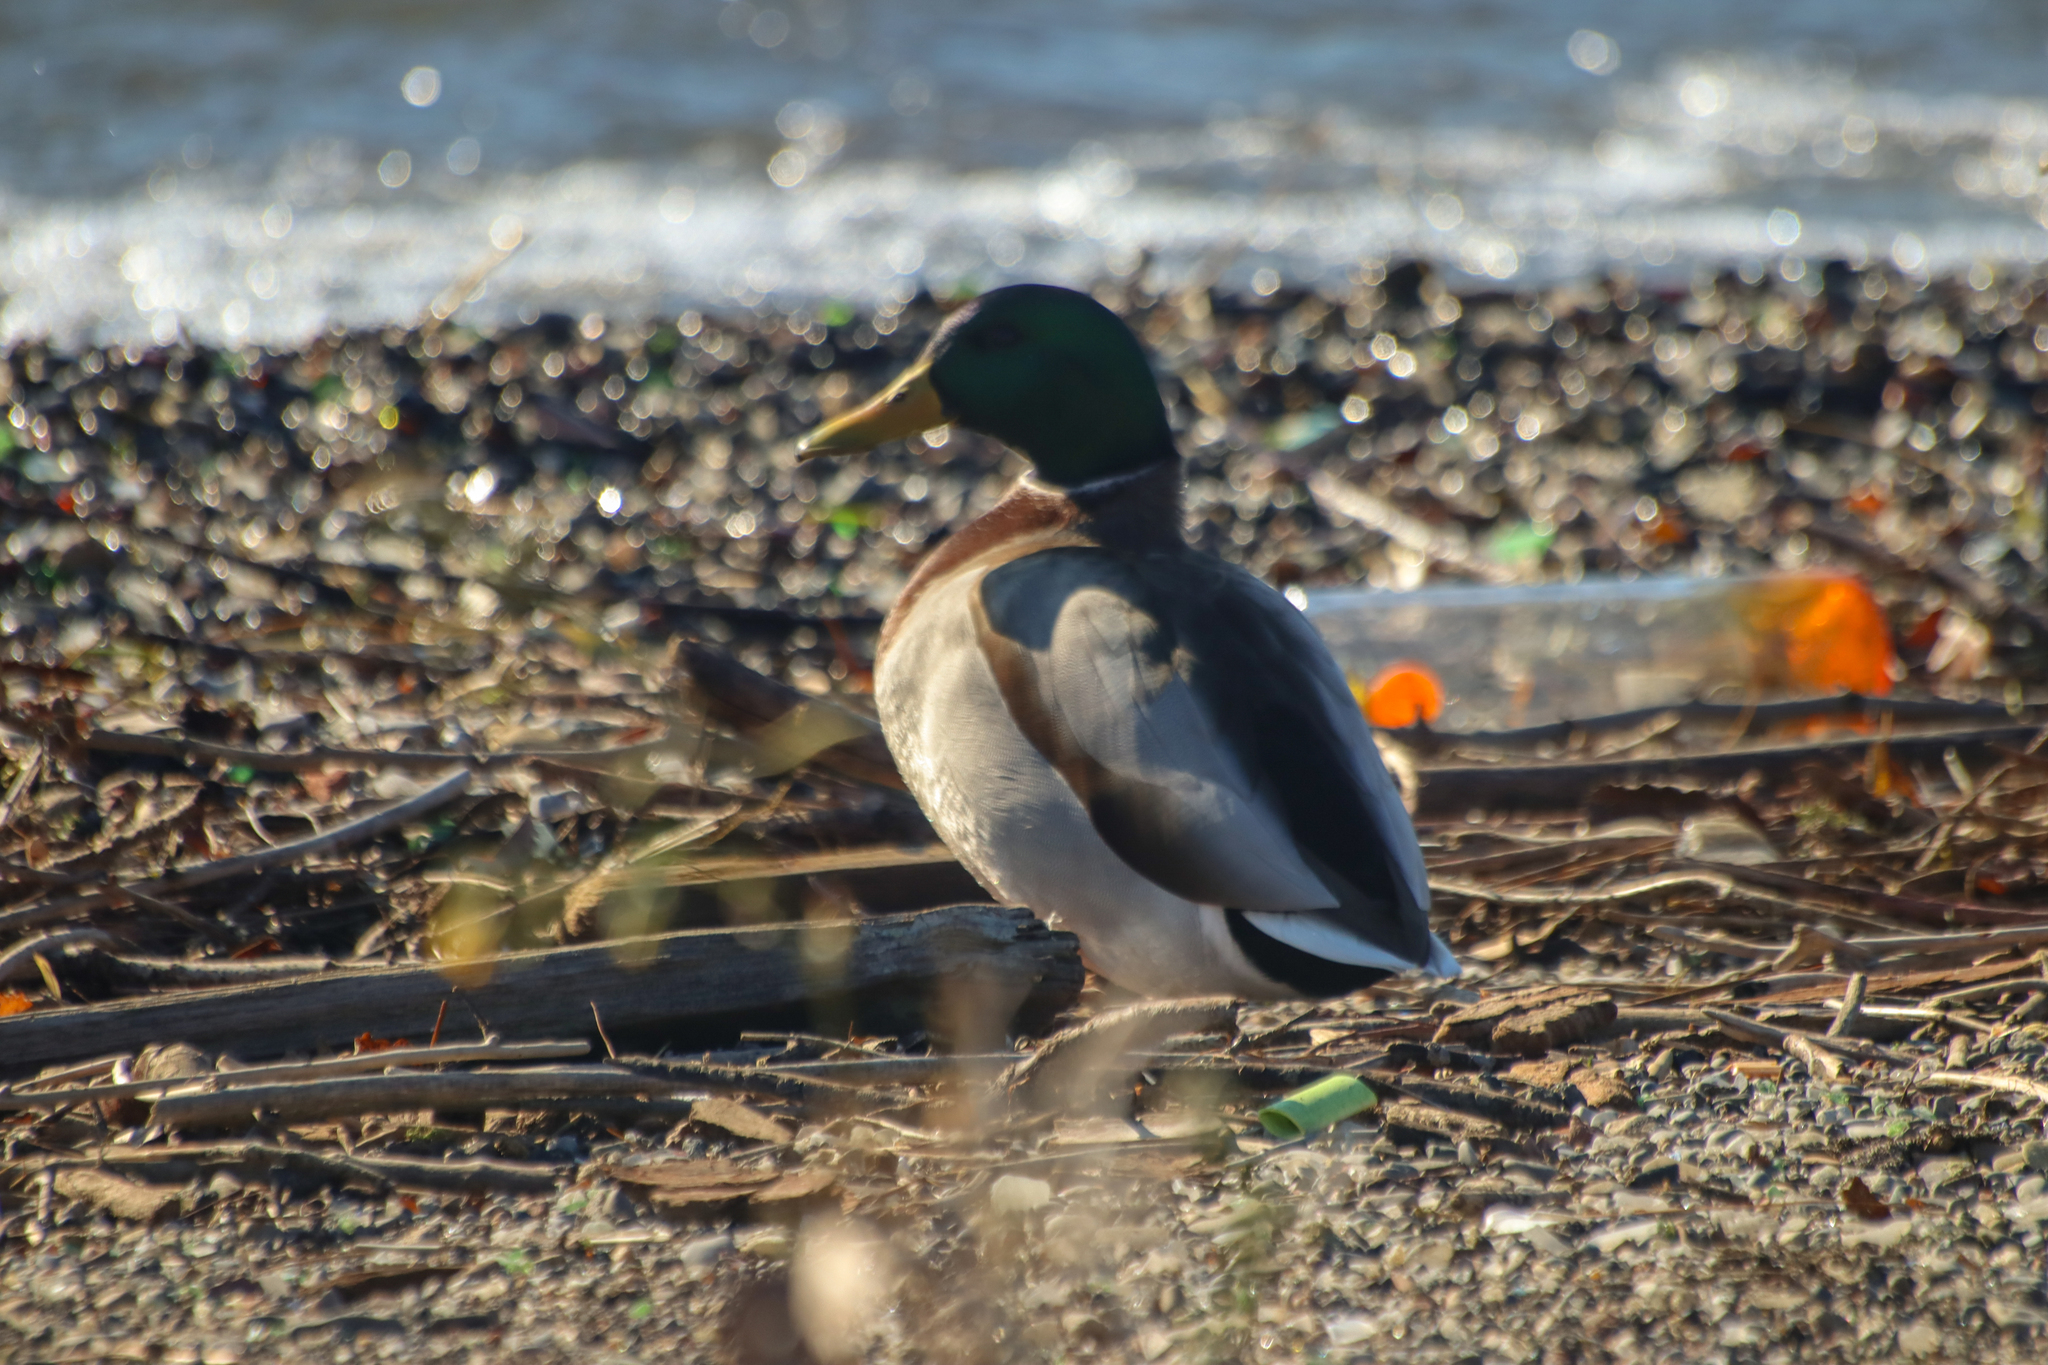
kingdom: Animalia
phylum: Chordata
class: Aves
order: Anseriformes
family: Anatidae
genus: Anas
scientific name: Anas platyrhynchos
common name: Mallard
